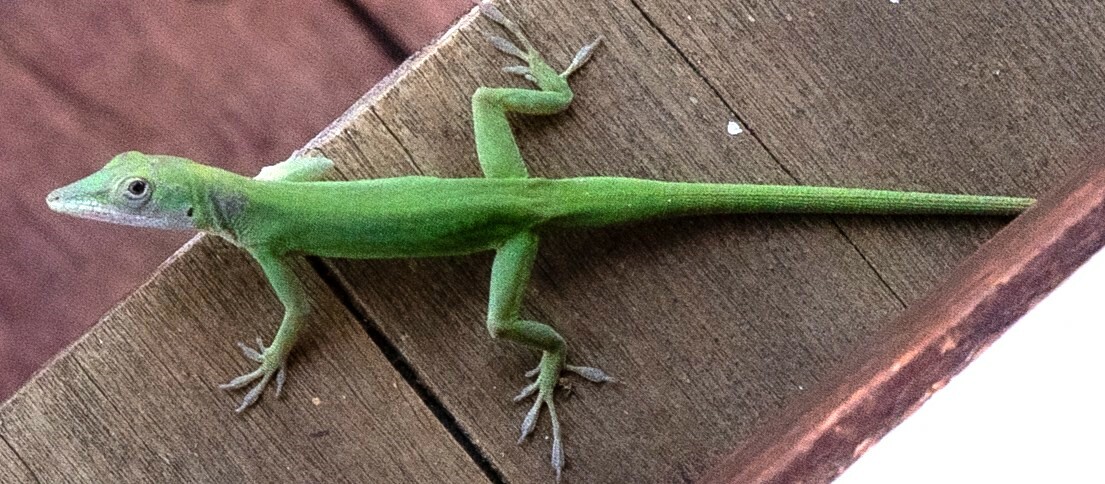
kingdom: Animalia
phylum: Chordata
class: Squamata
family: Dactyloidae
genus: Anolis
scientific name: Anolis marmoratus
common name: Guadeloupe anole
